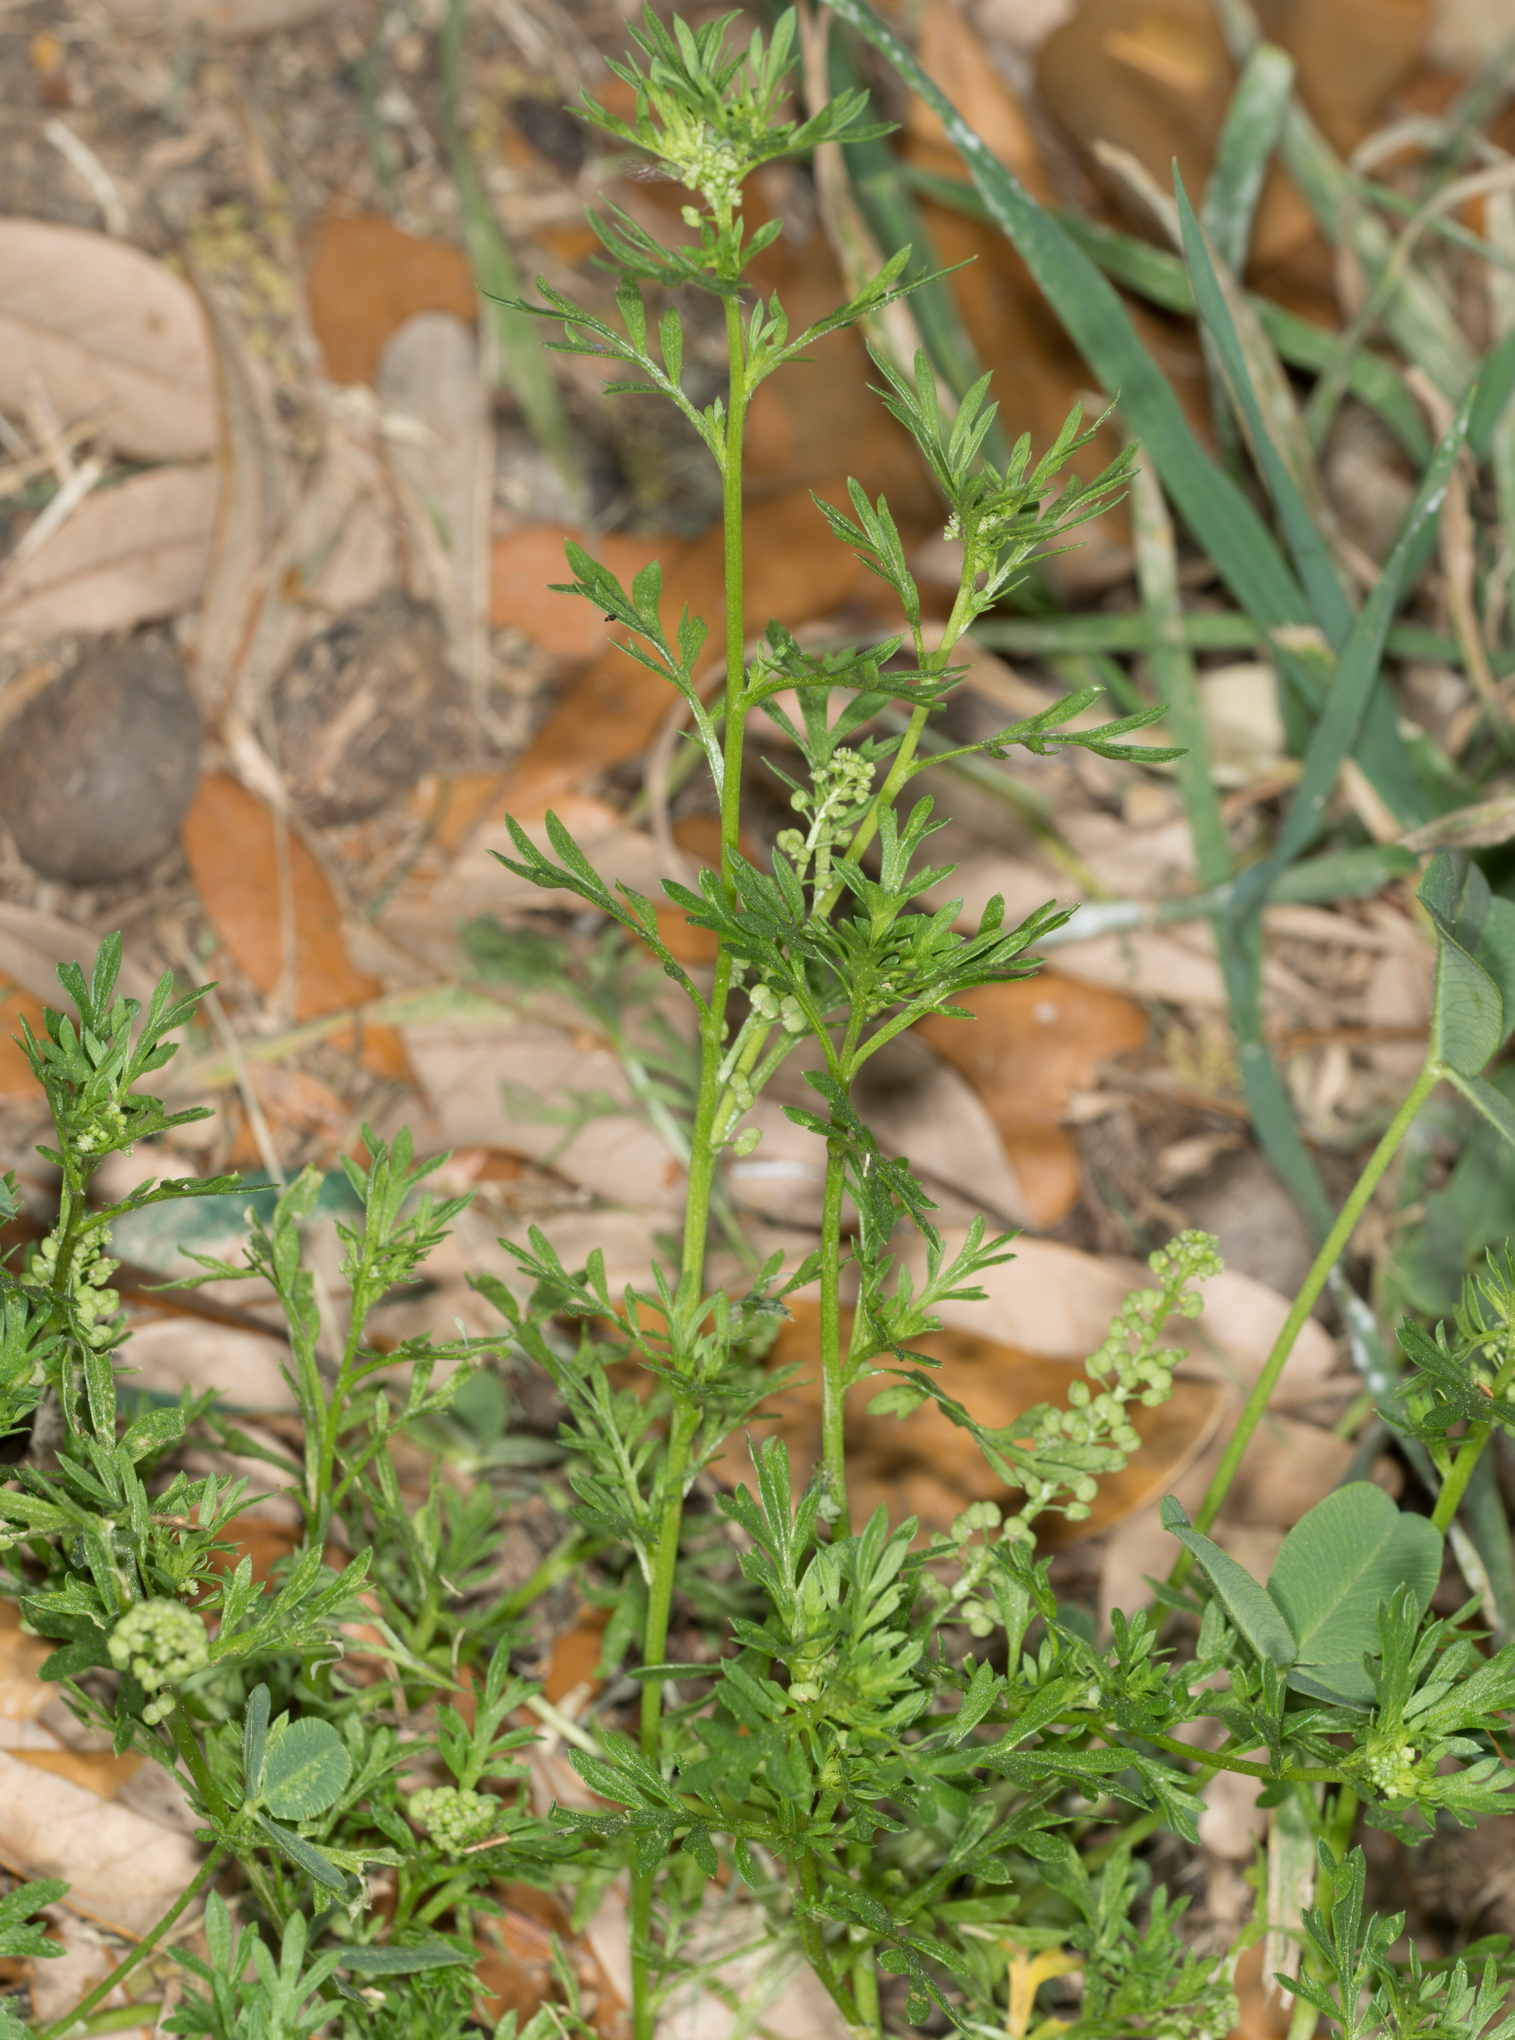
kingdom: Plantae
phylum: Tracheophyta
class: Magnoliopsida
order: Brassicales
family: Brassicaceae
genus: Lepidium
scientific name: Lepidium didymum
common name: Lesser swinecress
